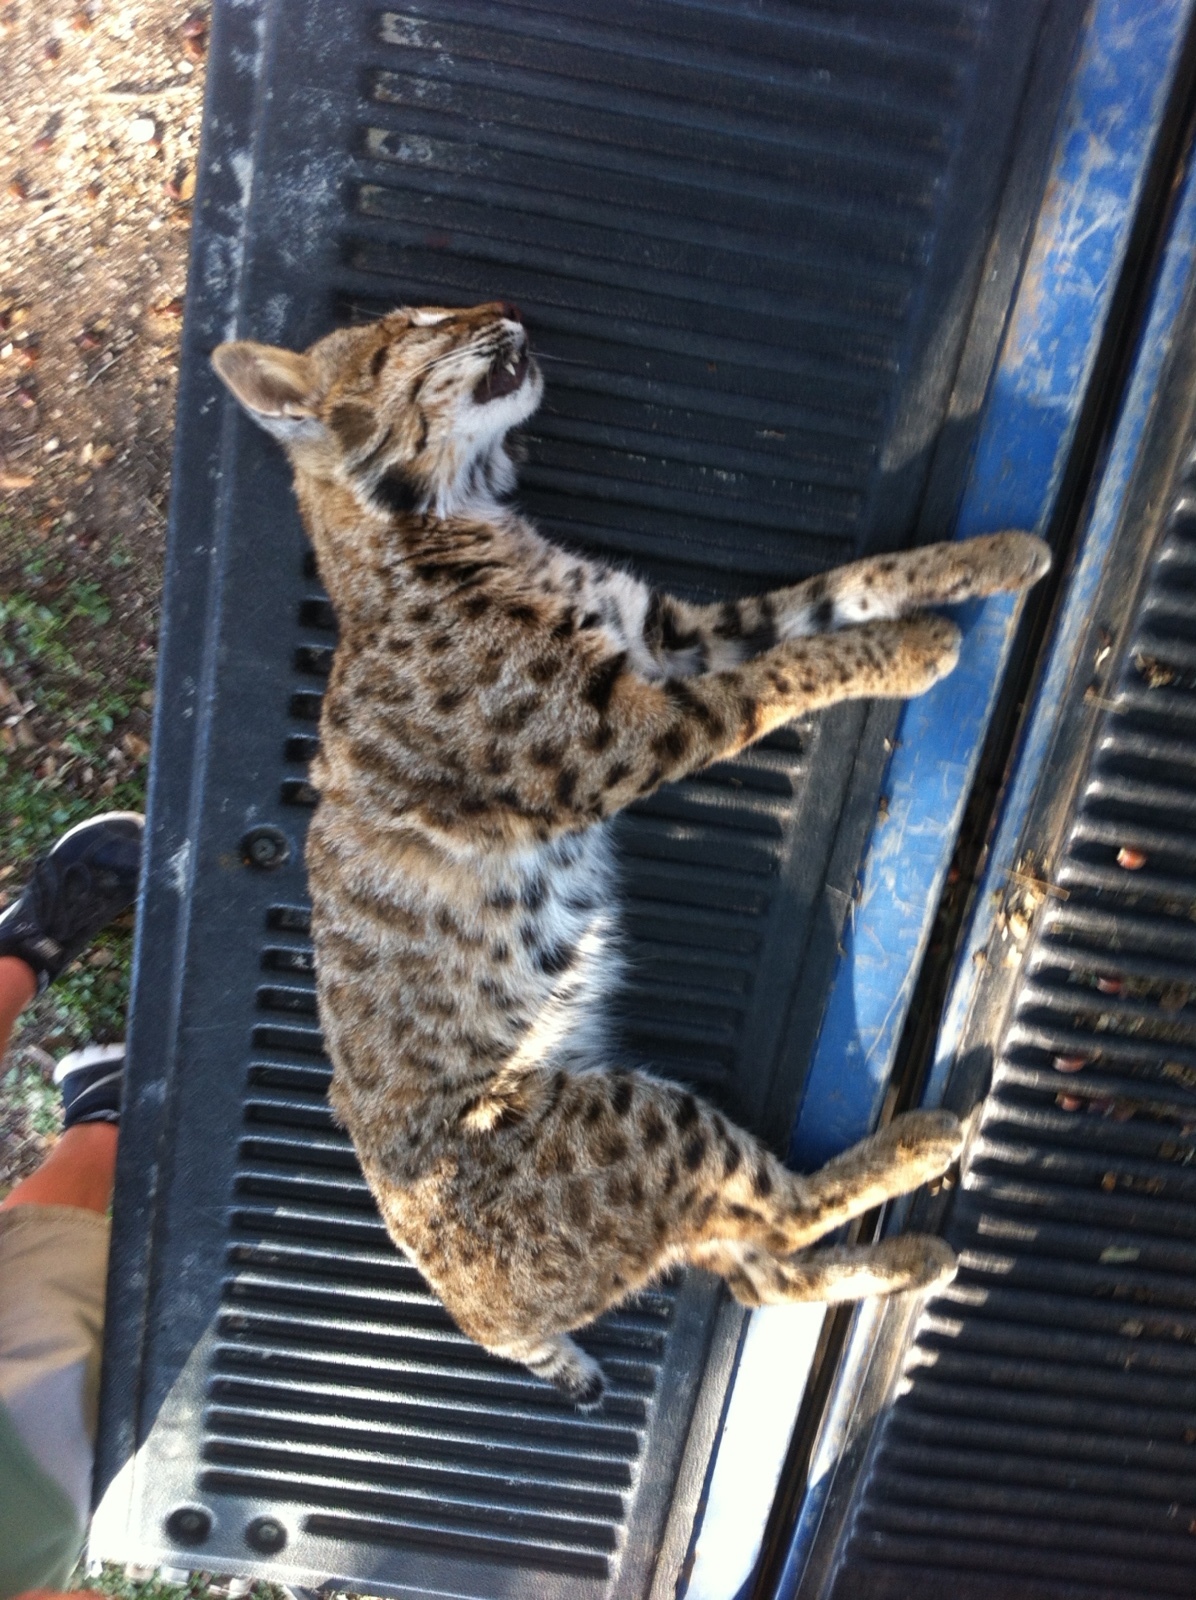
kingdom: Animalia
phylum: Chordata
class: Mammalia
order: Carnivora
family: Felidae
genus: Lynx
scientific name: Lynx rufus
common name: Bobcat
